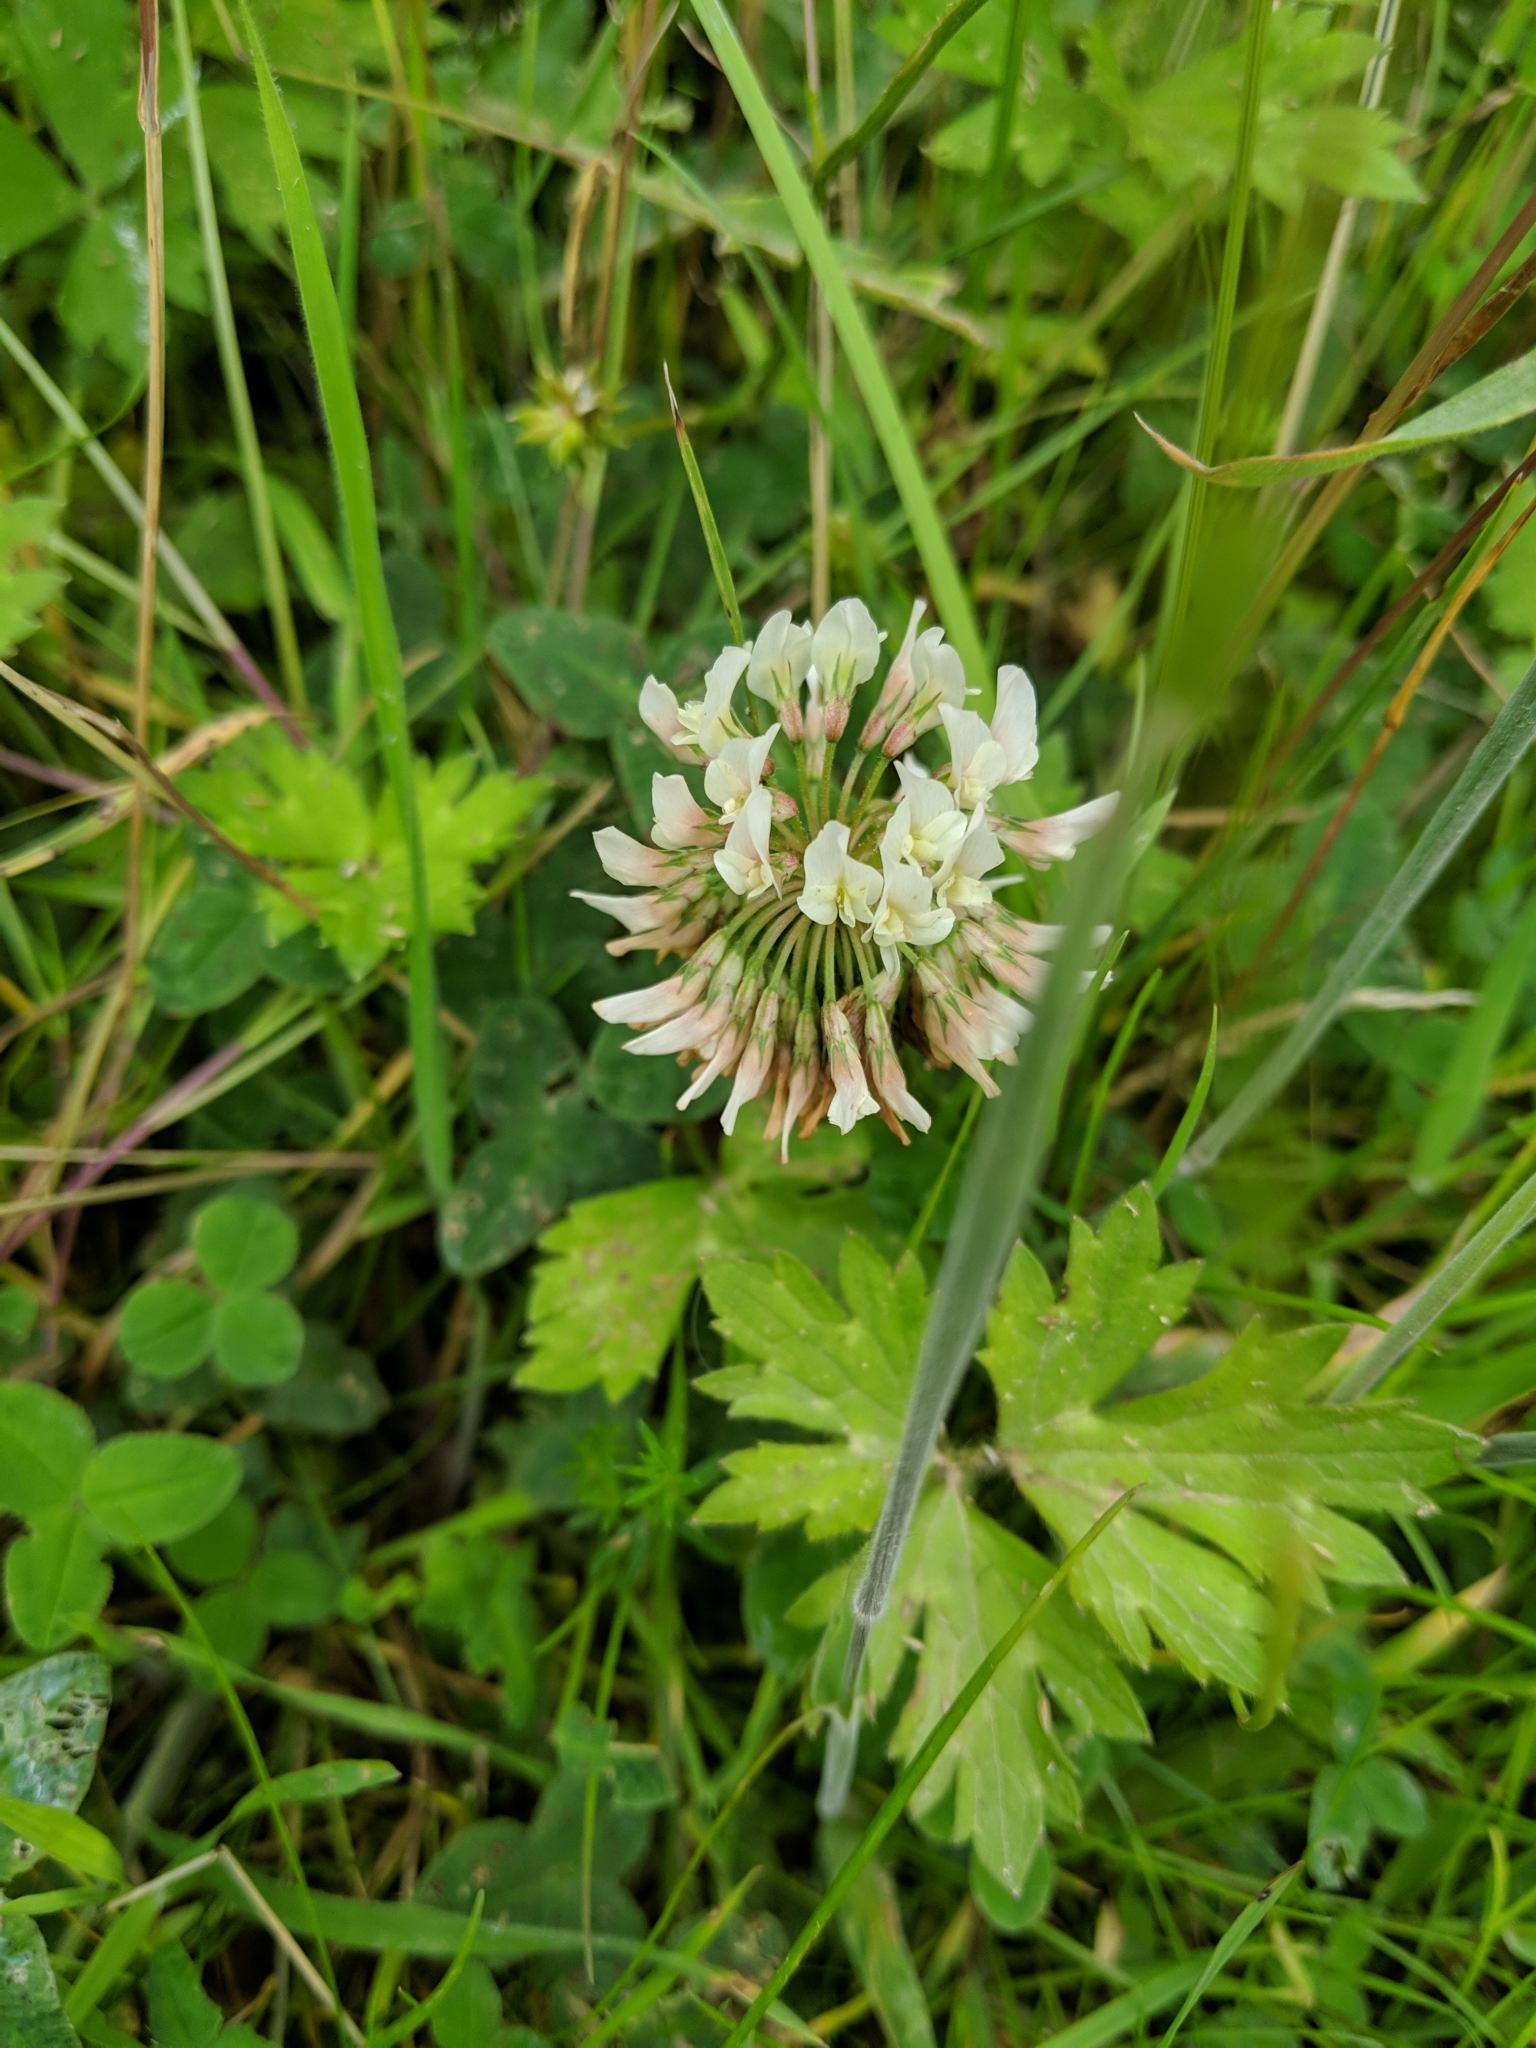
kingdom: Plantae
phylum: Tracheophyta
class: Magnoliopsida
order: Fabales
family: Fabaceae
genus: Trifolium
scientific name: Trifolium repens
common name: White clover
